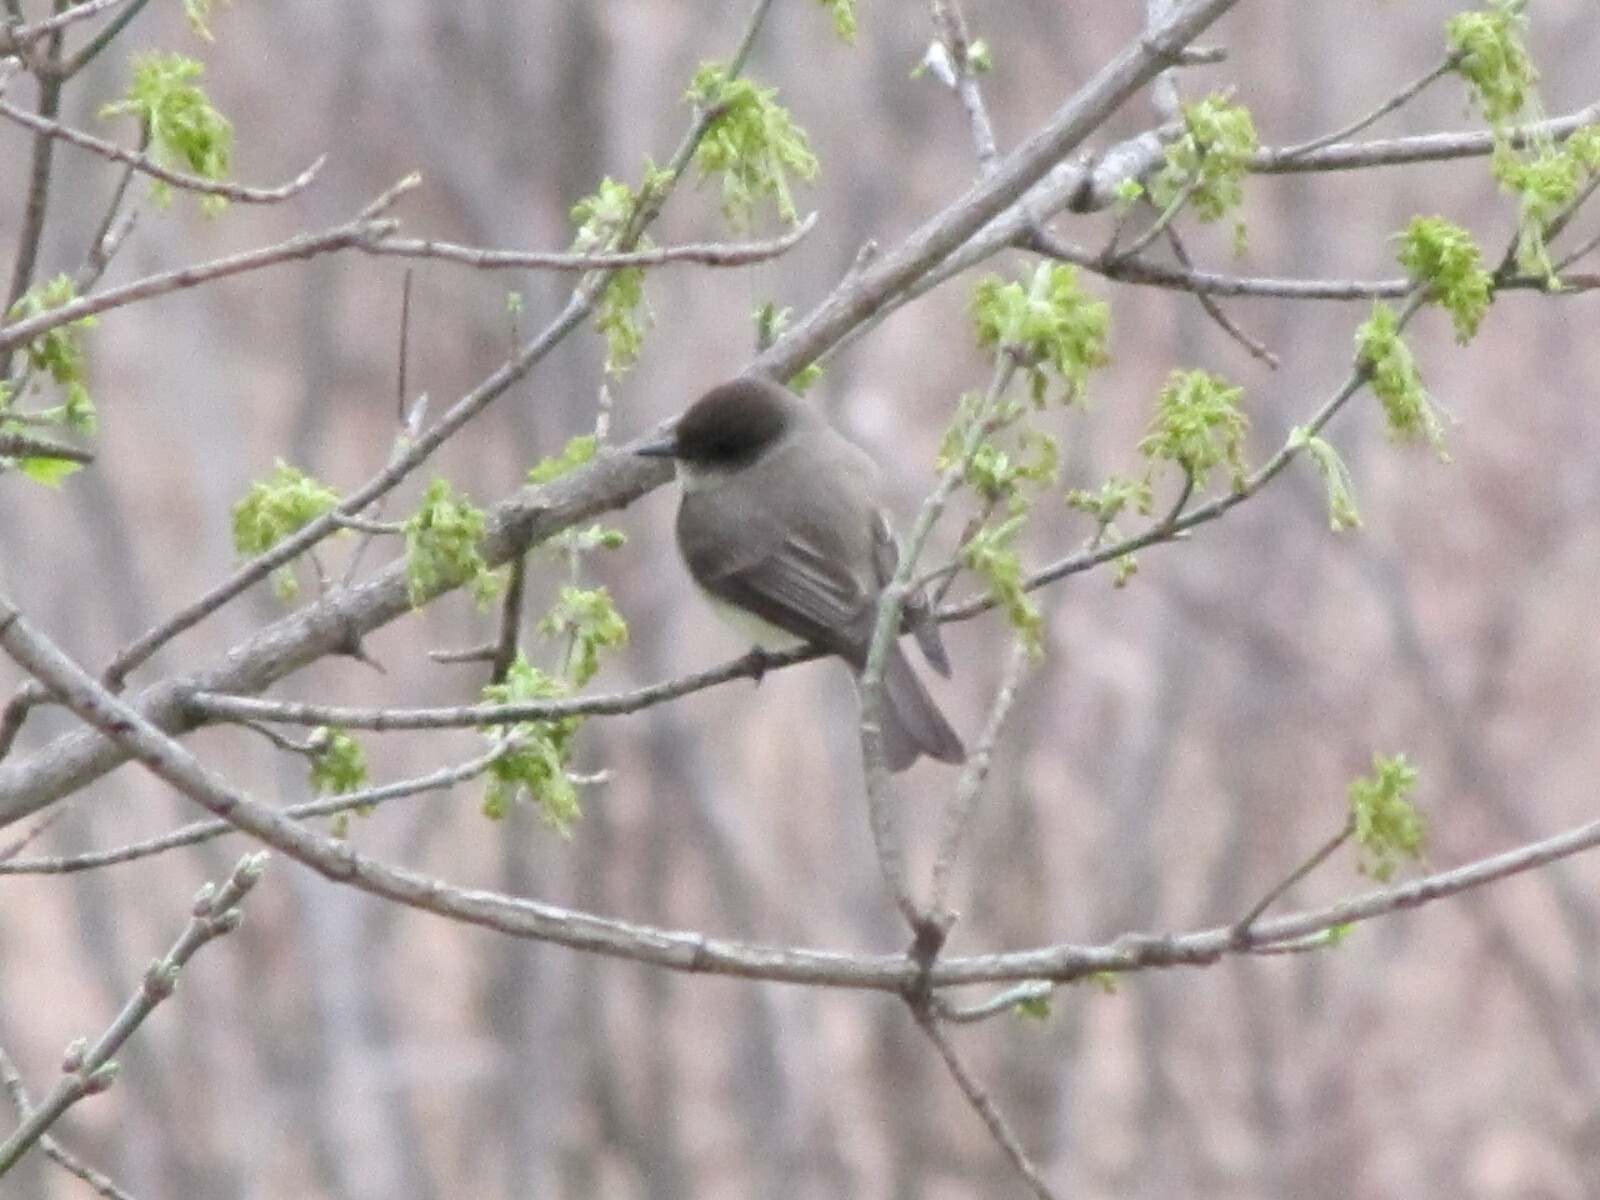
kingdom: Animalia
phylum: Chordata
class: Aves
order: Passeriformes
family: Tyrannidae
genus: Sayornis
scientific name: Sayornis phoebe
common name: Eastern phoebe
